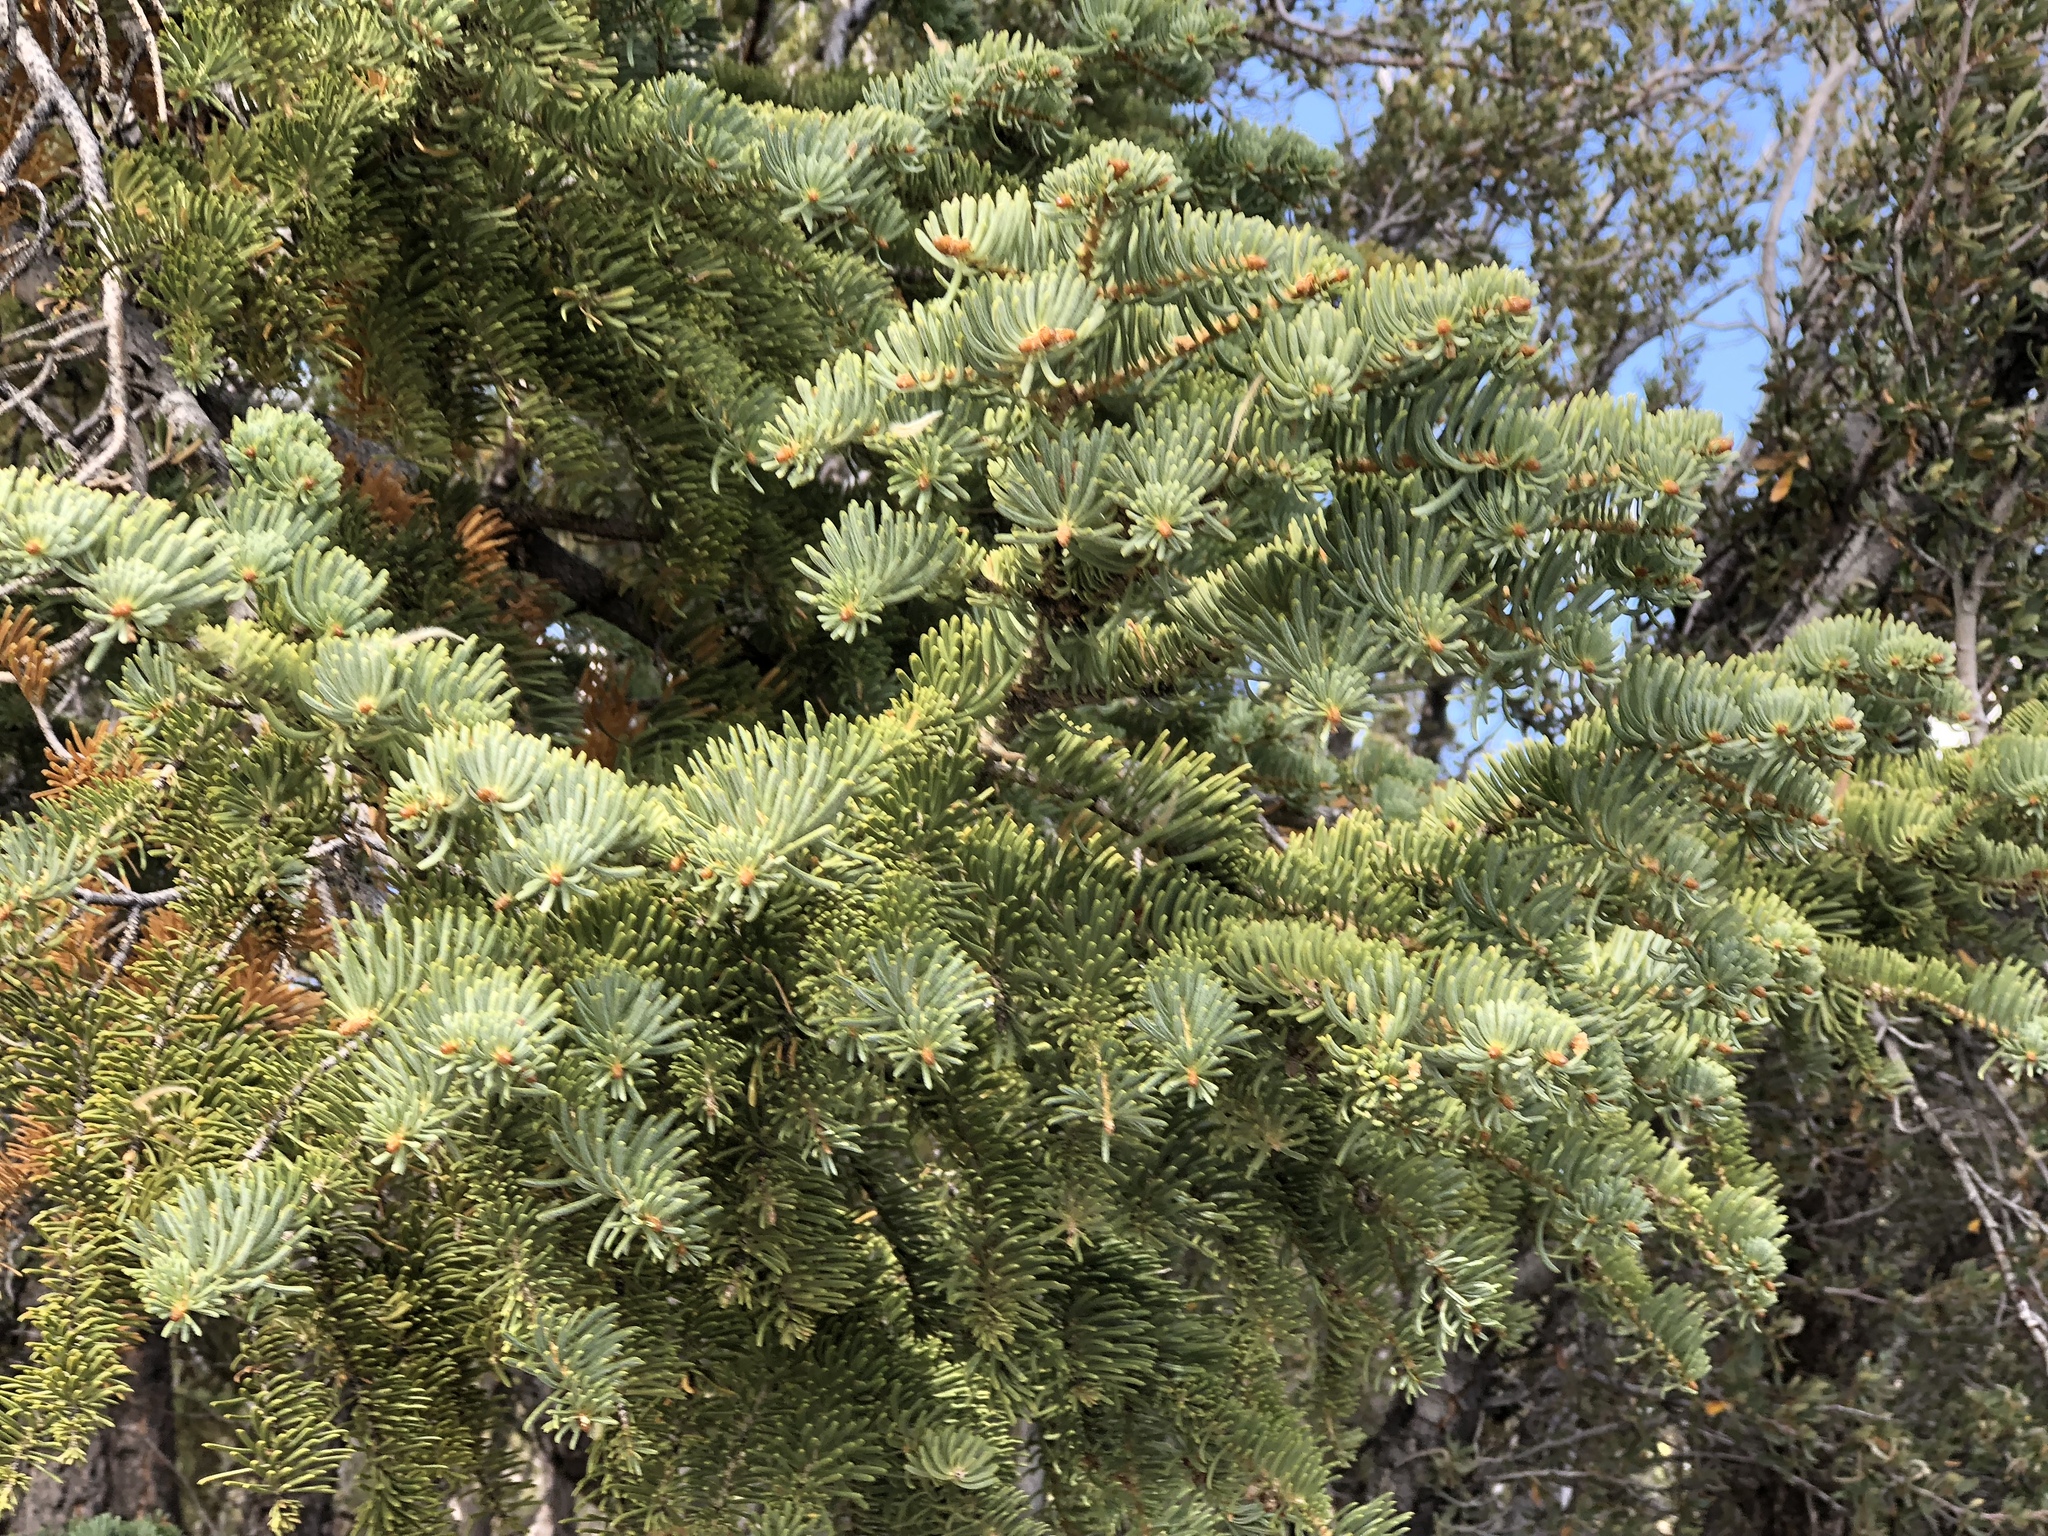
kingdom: Plantae
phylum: Tracheophyta
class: Pinopsida
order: Pinales
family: Pinaceae
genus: Abies
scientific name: Abies concolor
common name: Colorado fir
